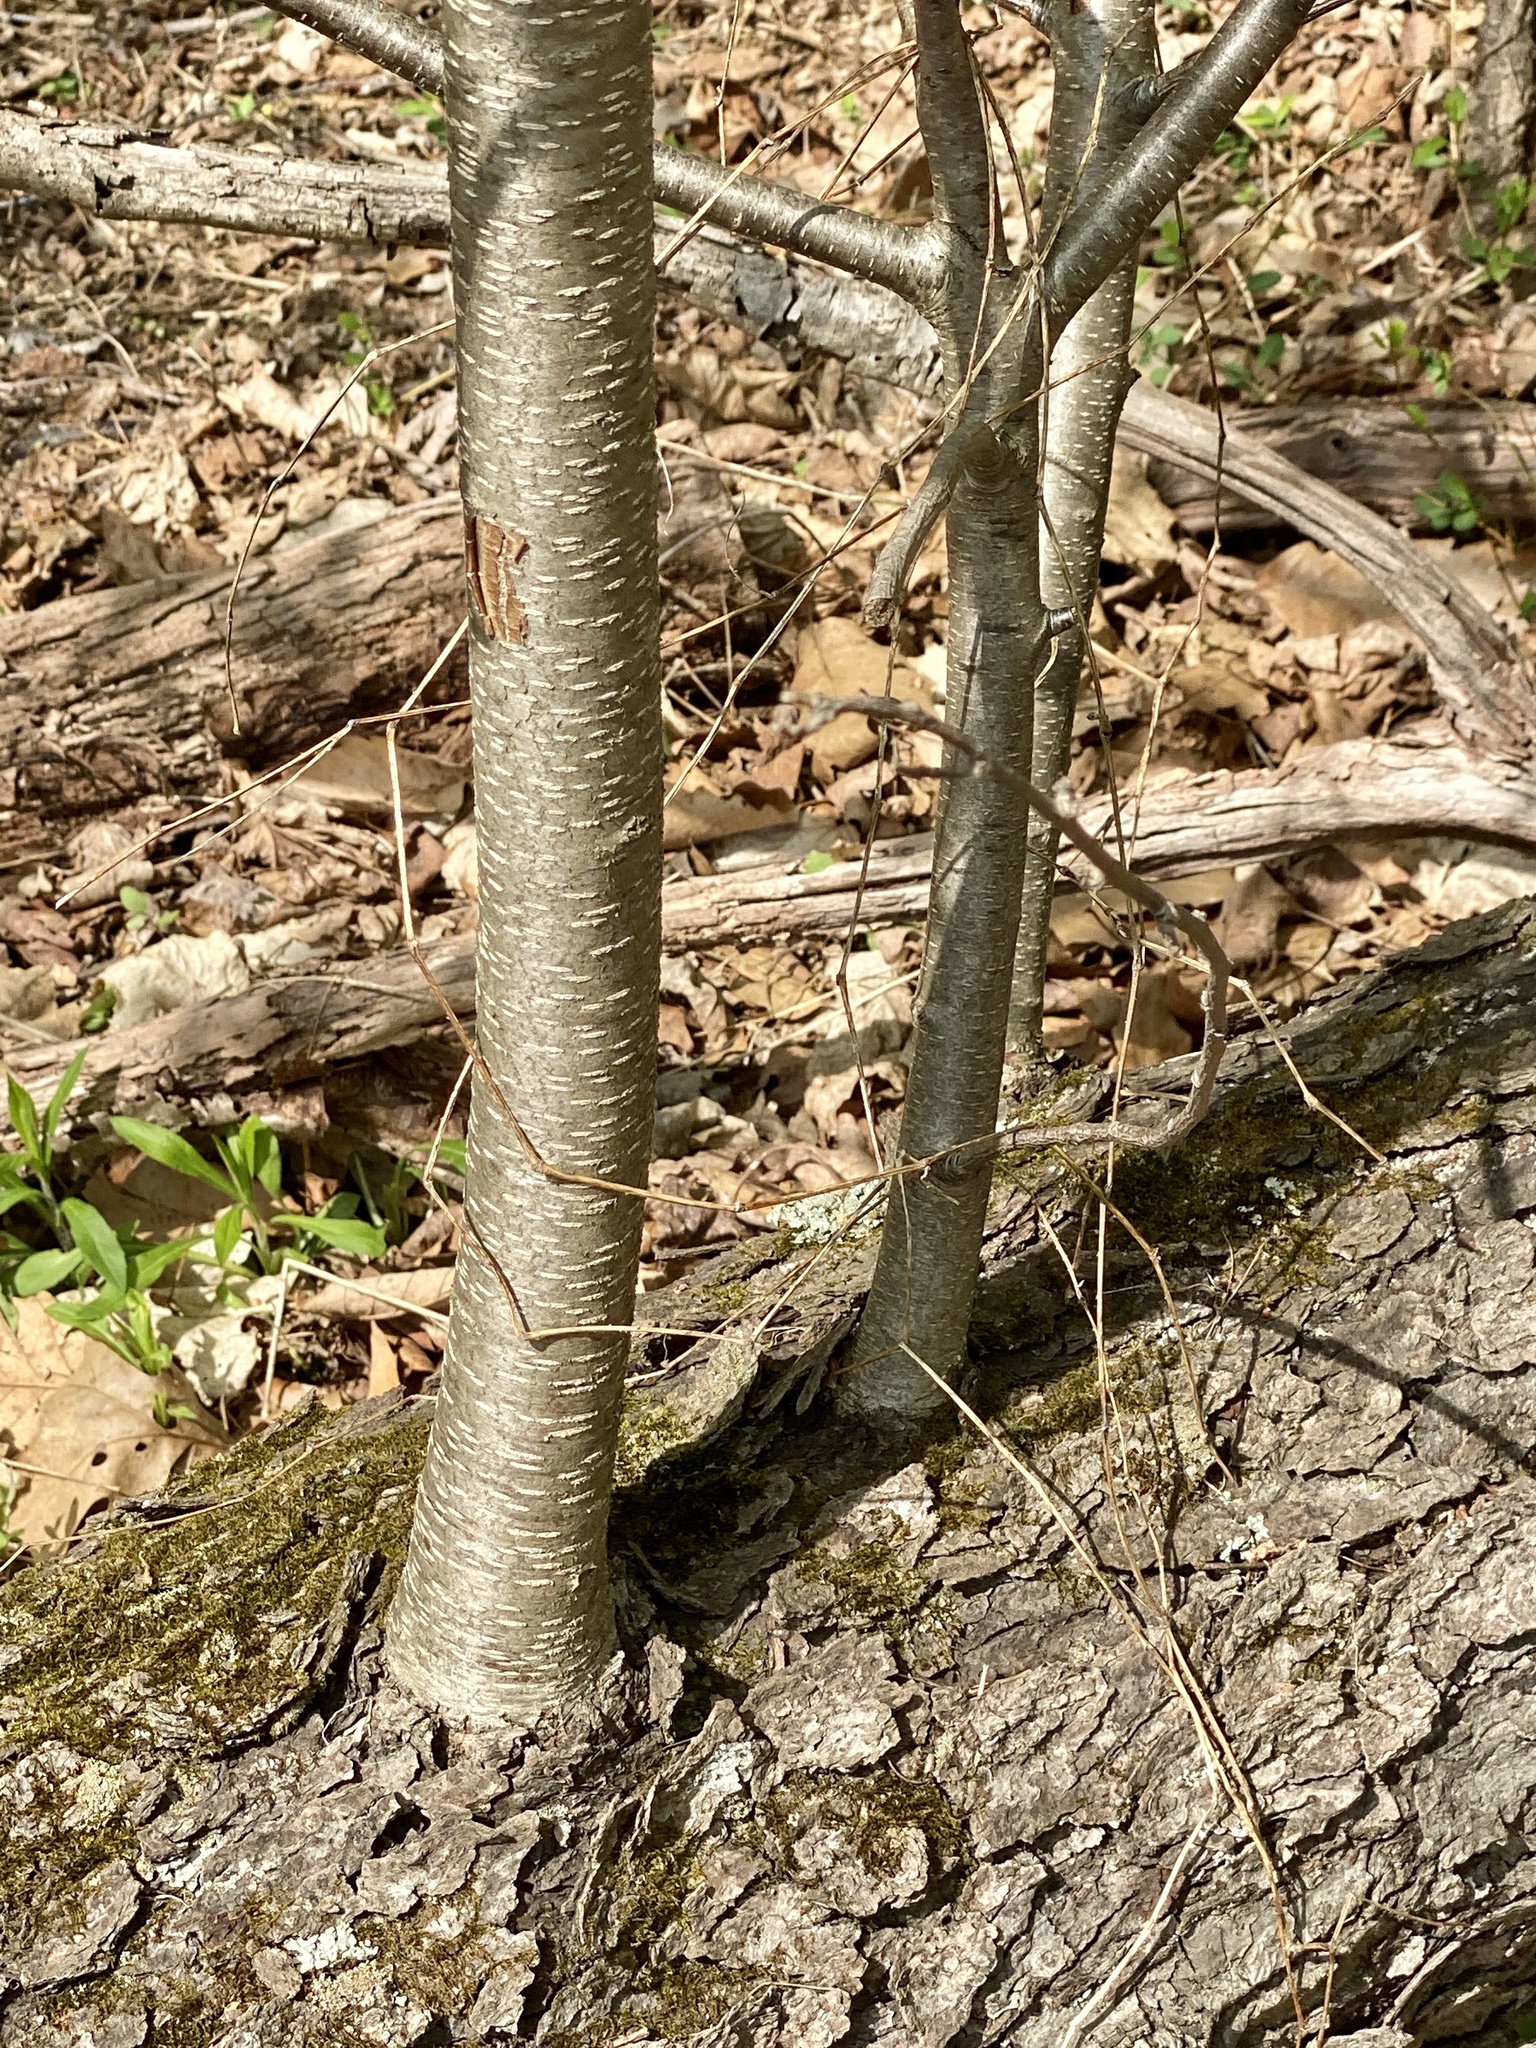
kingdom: Plantae
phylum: Tracheophyta
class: Magnoliopsida
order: Rosales
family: Rosaceae
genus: Prunus
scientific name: Prunus serotina
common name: Black cherry
